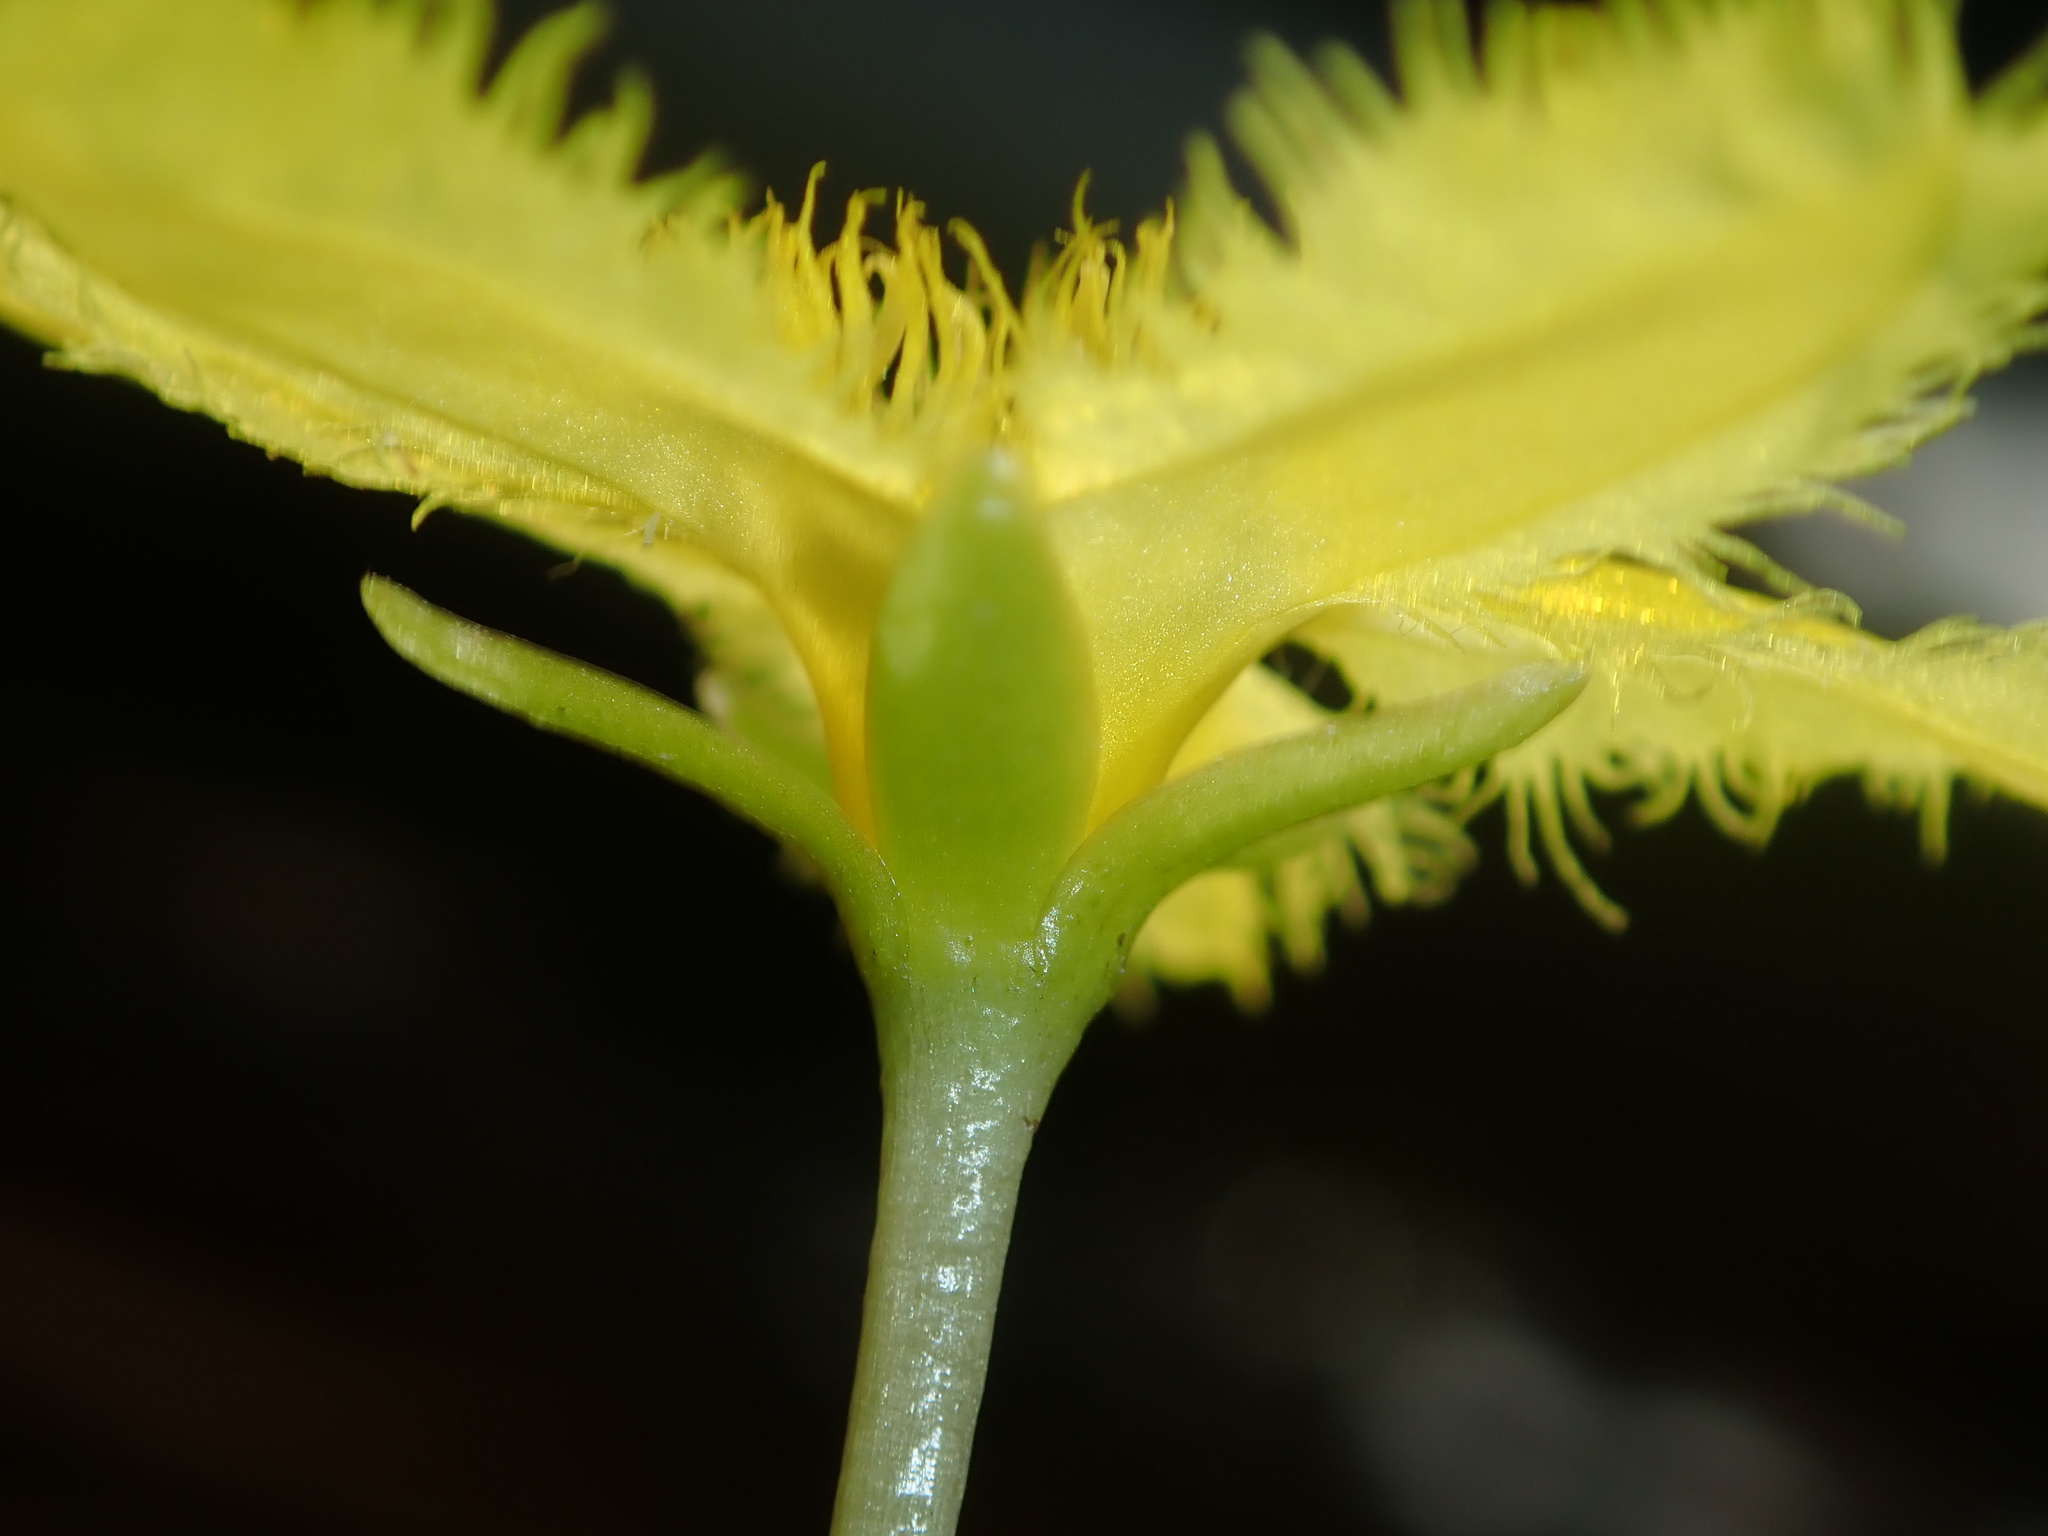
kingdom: Plantae
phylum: Tracheophyta
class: Magnoliopsida
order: Asterales
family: Menyanthaceae
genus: Nymphoides
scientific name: Nymphoides geminata
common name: Entire marshwort
